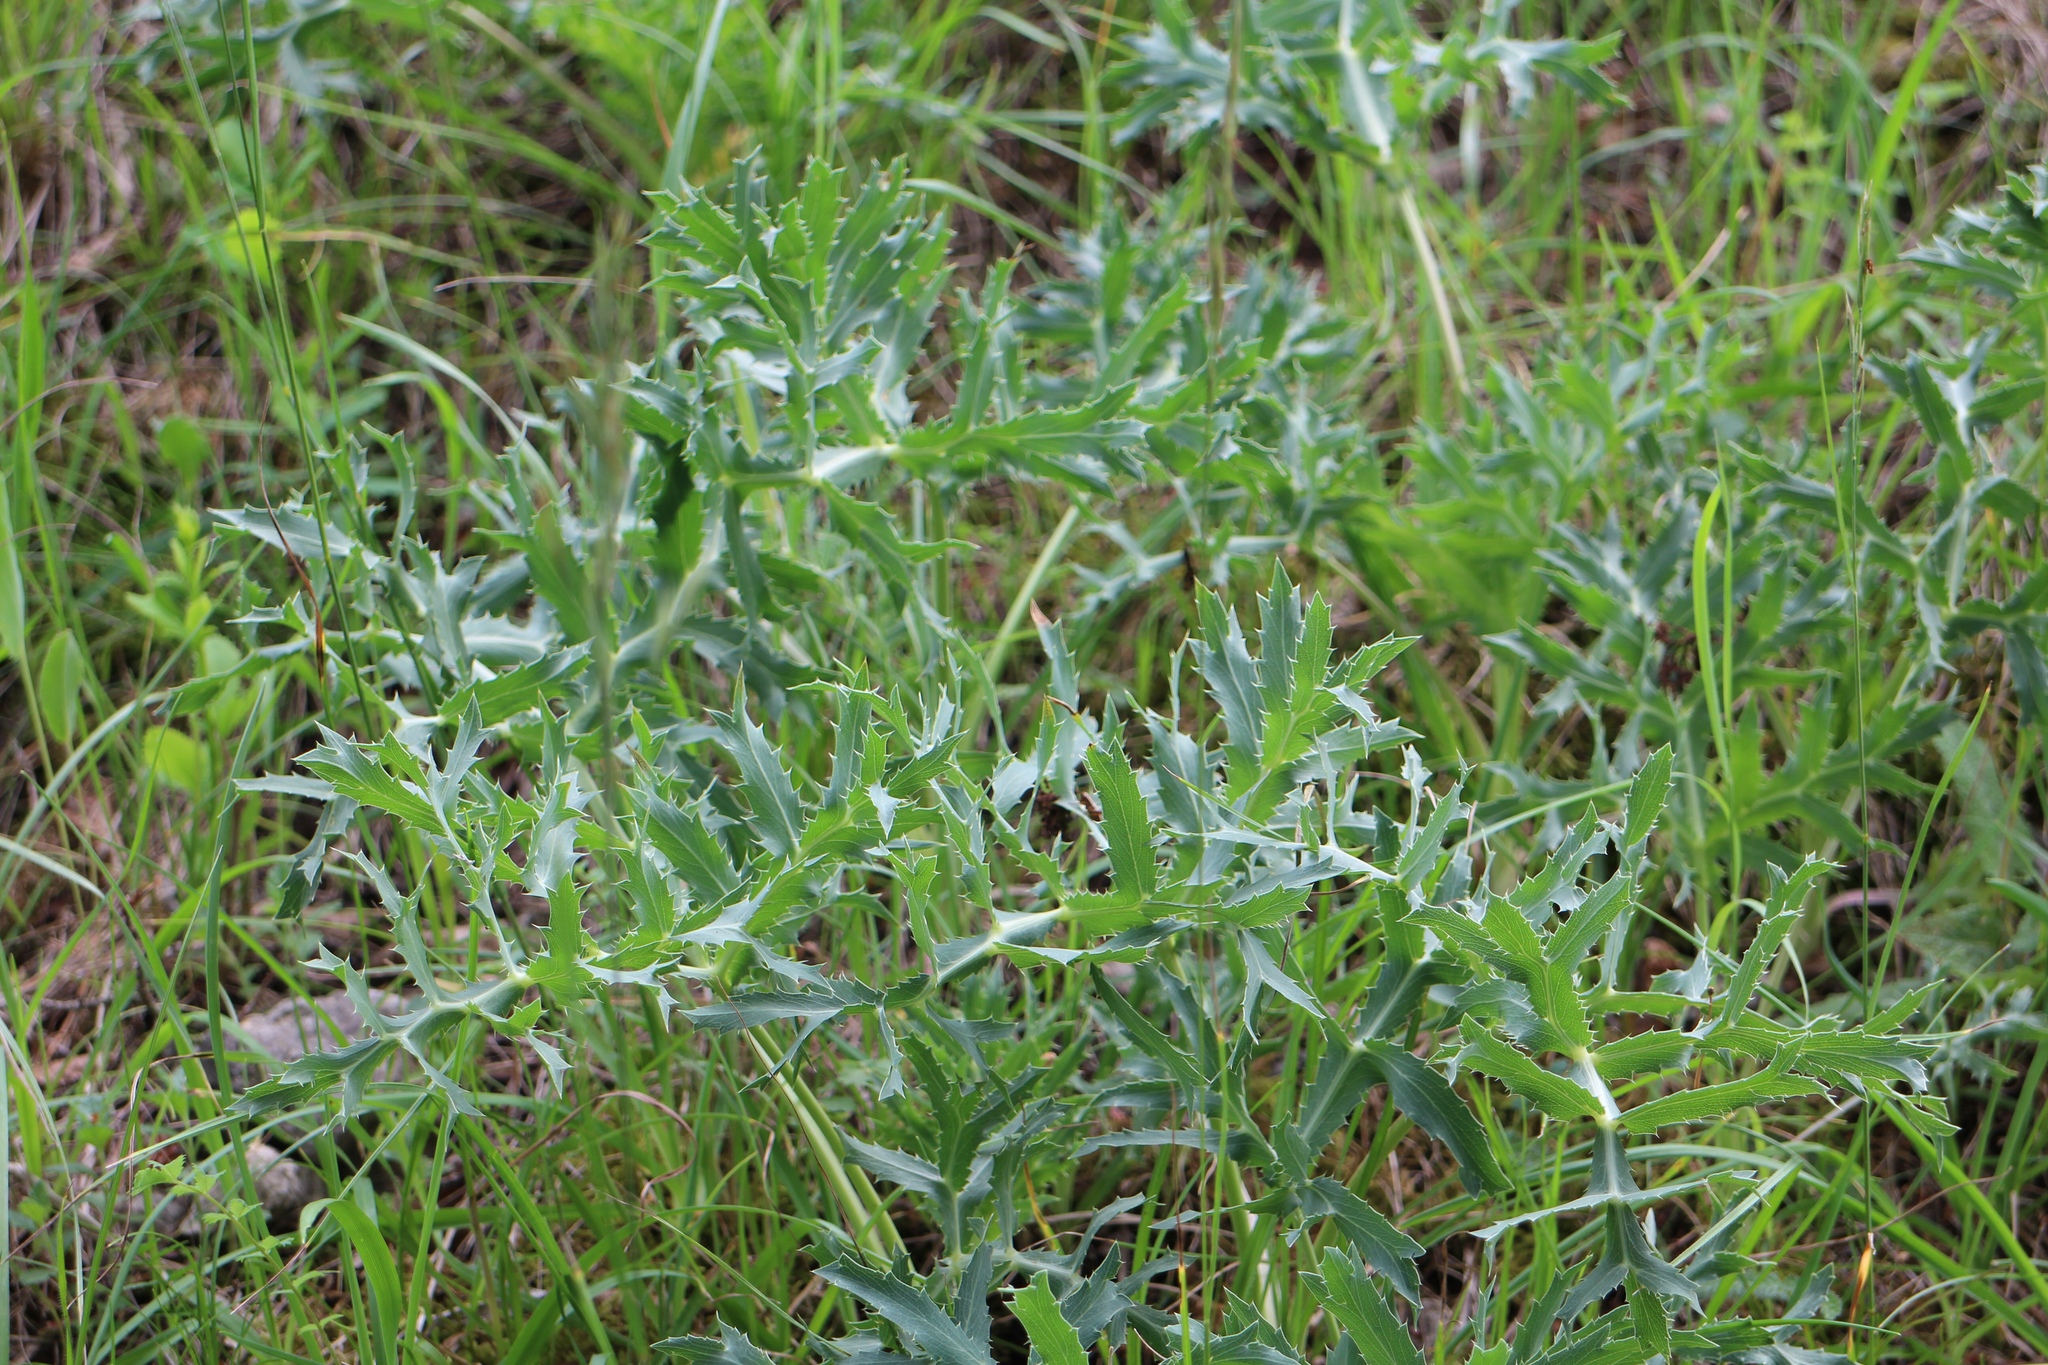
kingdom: Plantae
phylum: Tracheophyta
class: Magnoliopsida
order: Apiales
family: Apiaceae
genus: Eryngium
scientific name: Eryngium campestre
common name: Field eryngo
